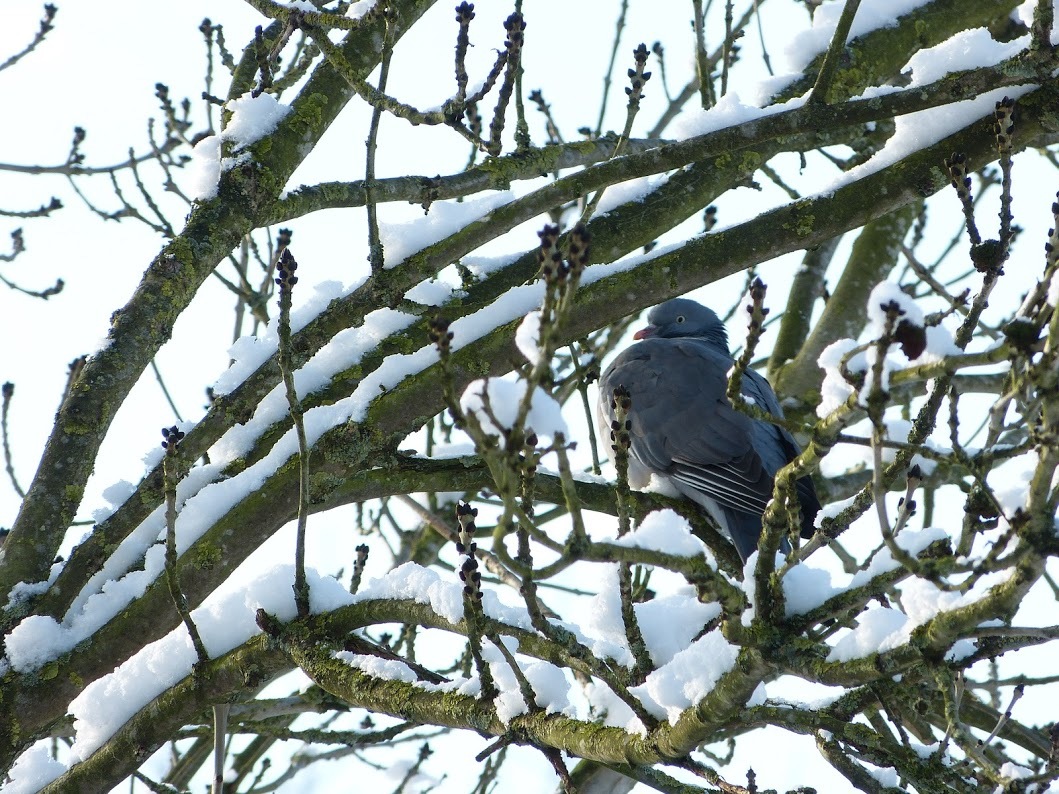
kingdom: Animalia
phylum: Chordata
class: Aves
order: Columbiformes
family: Columbidae
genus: Columba
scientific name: Columba palumbus
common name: Common wood pigeon
